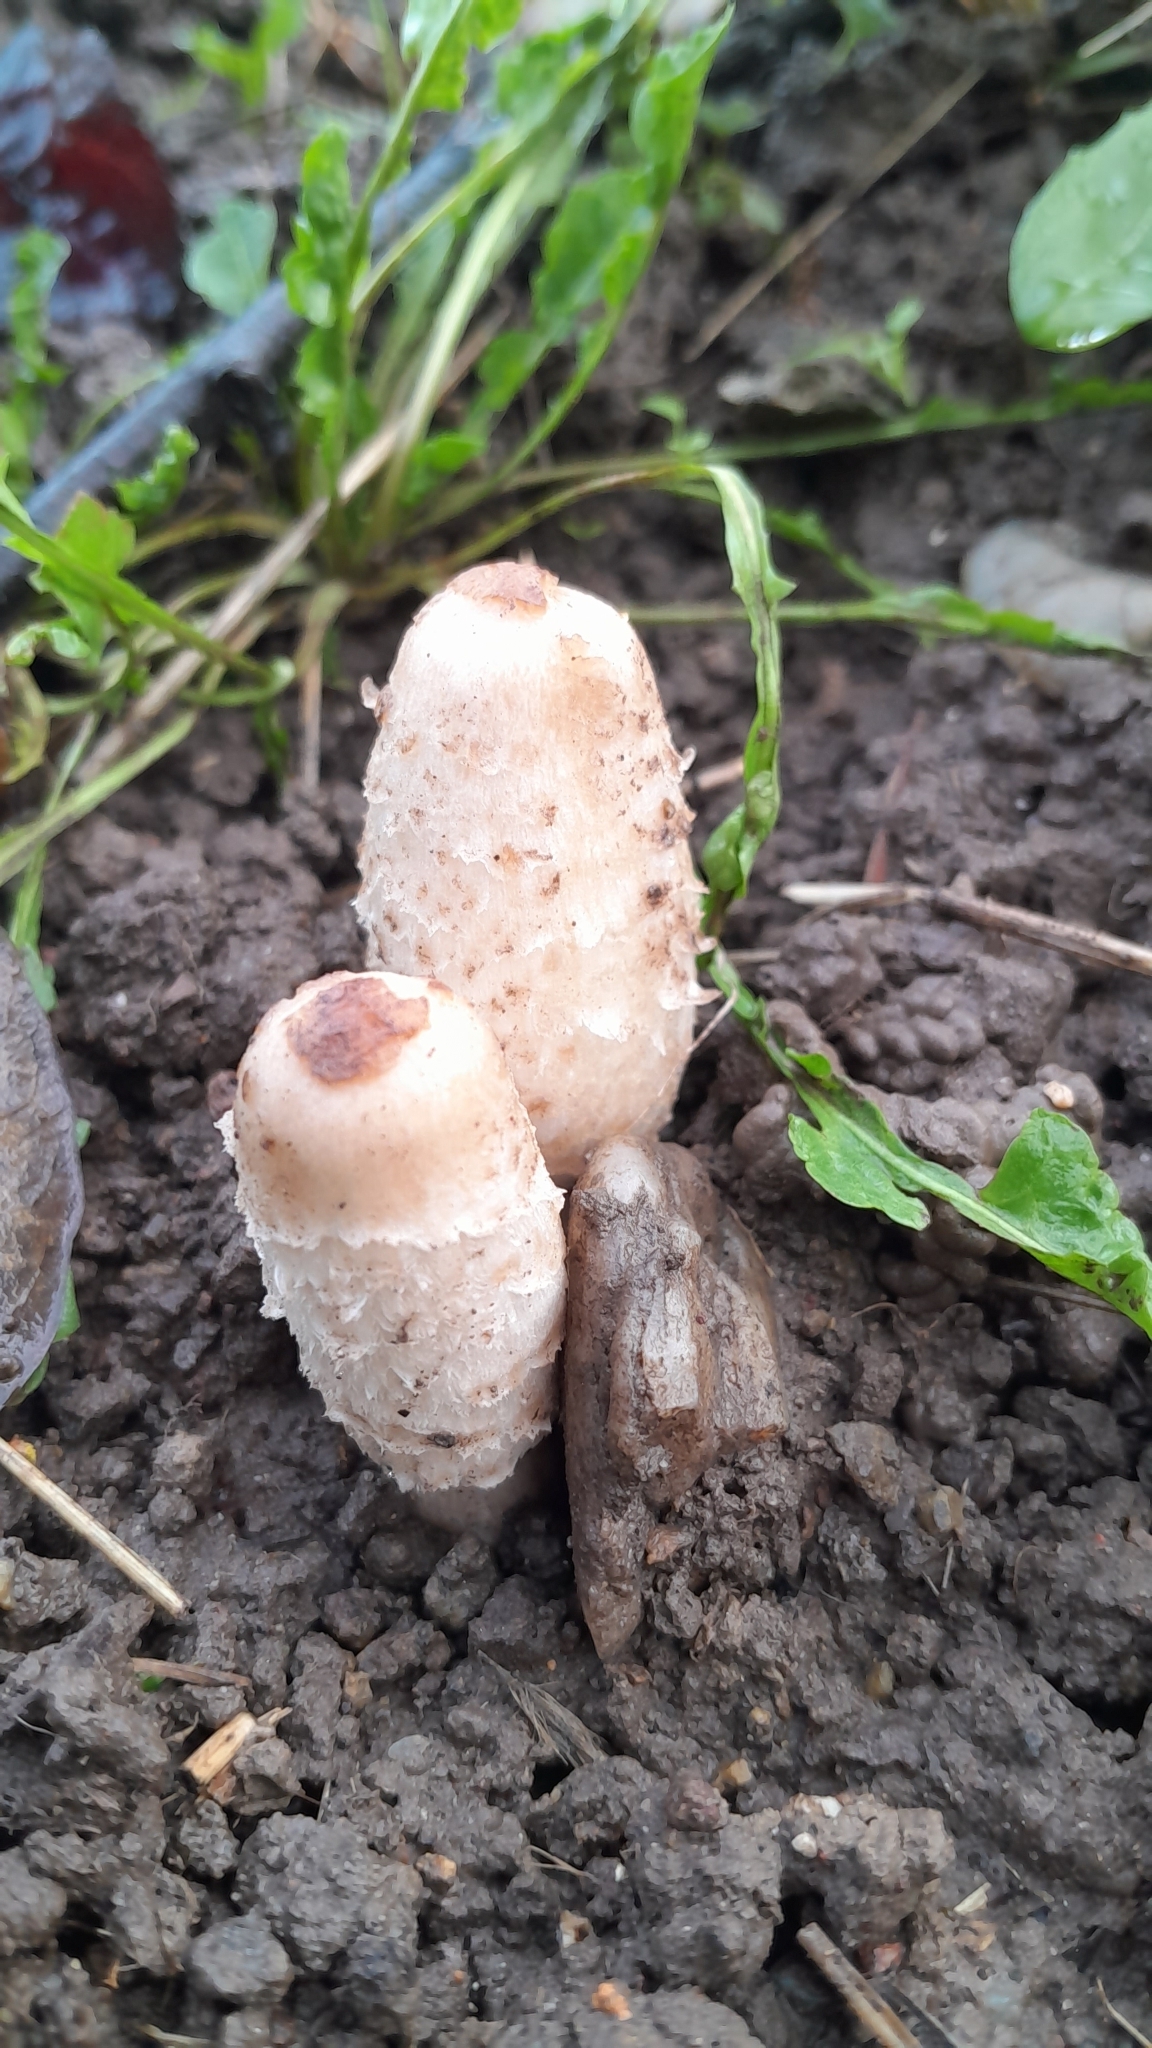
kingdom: Fungi
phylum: Basidiomycota
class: Agaricomycetes
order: Agaricales
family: Agaricaceae
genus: Coprinus
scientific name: Coprinus comatus
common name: Lawyer's wig
